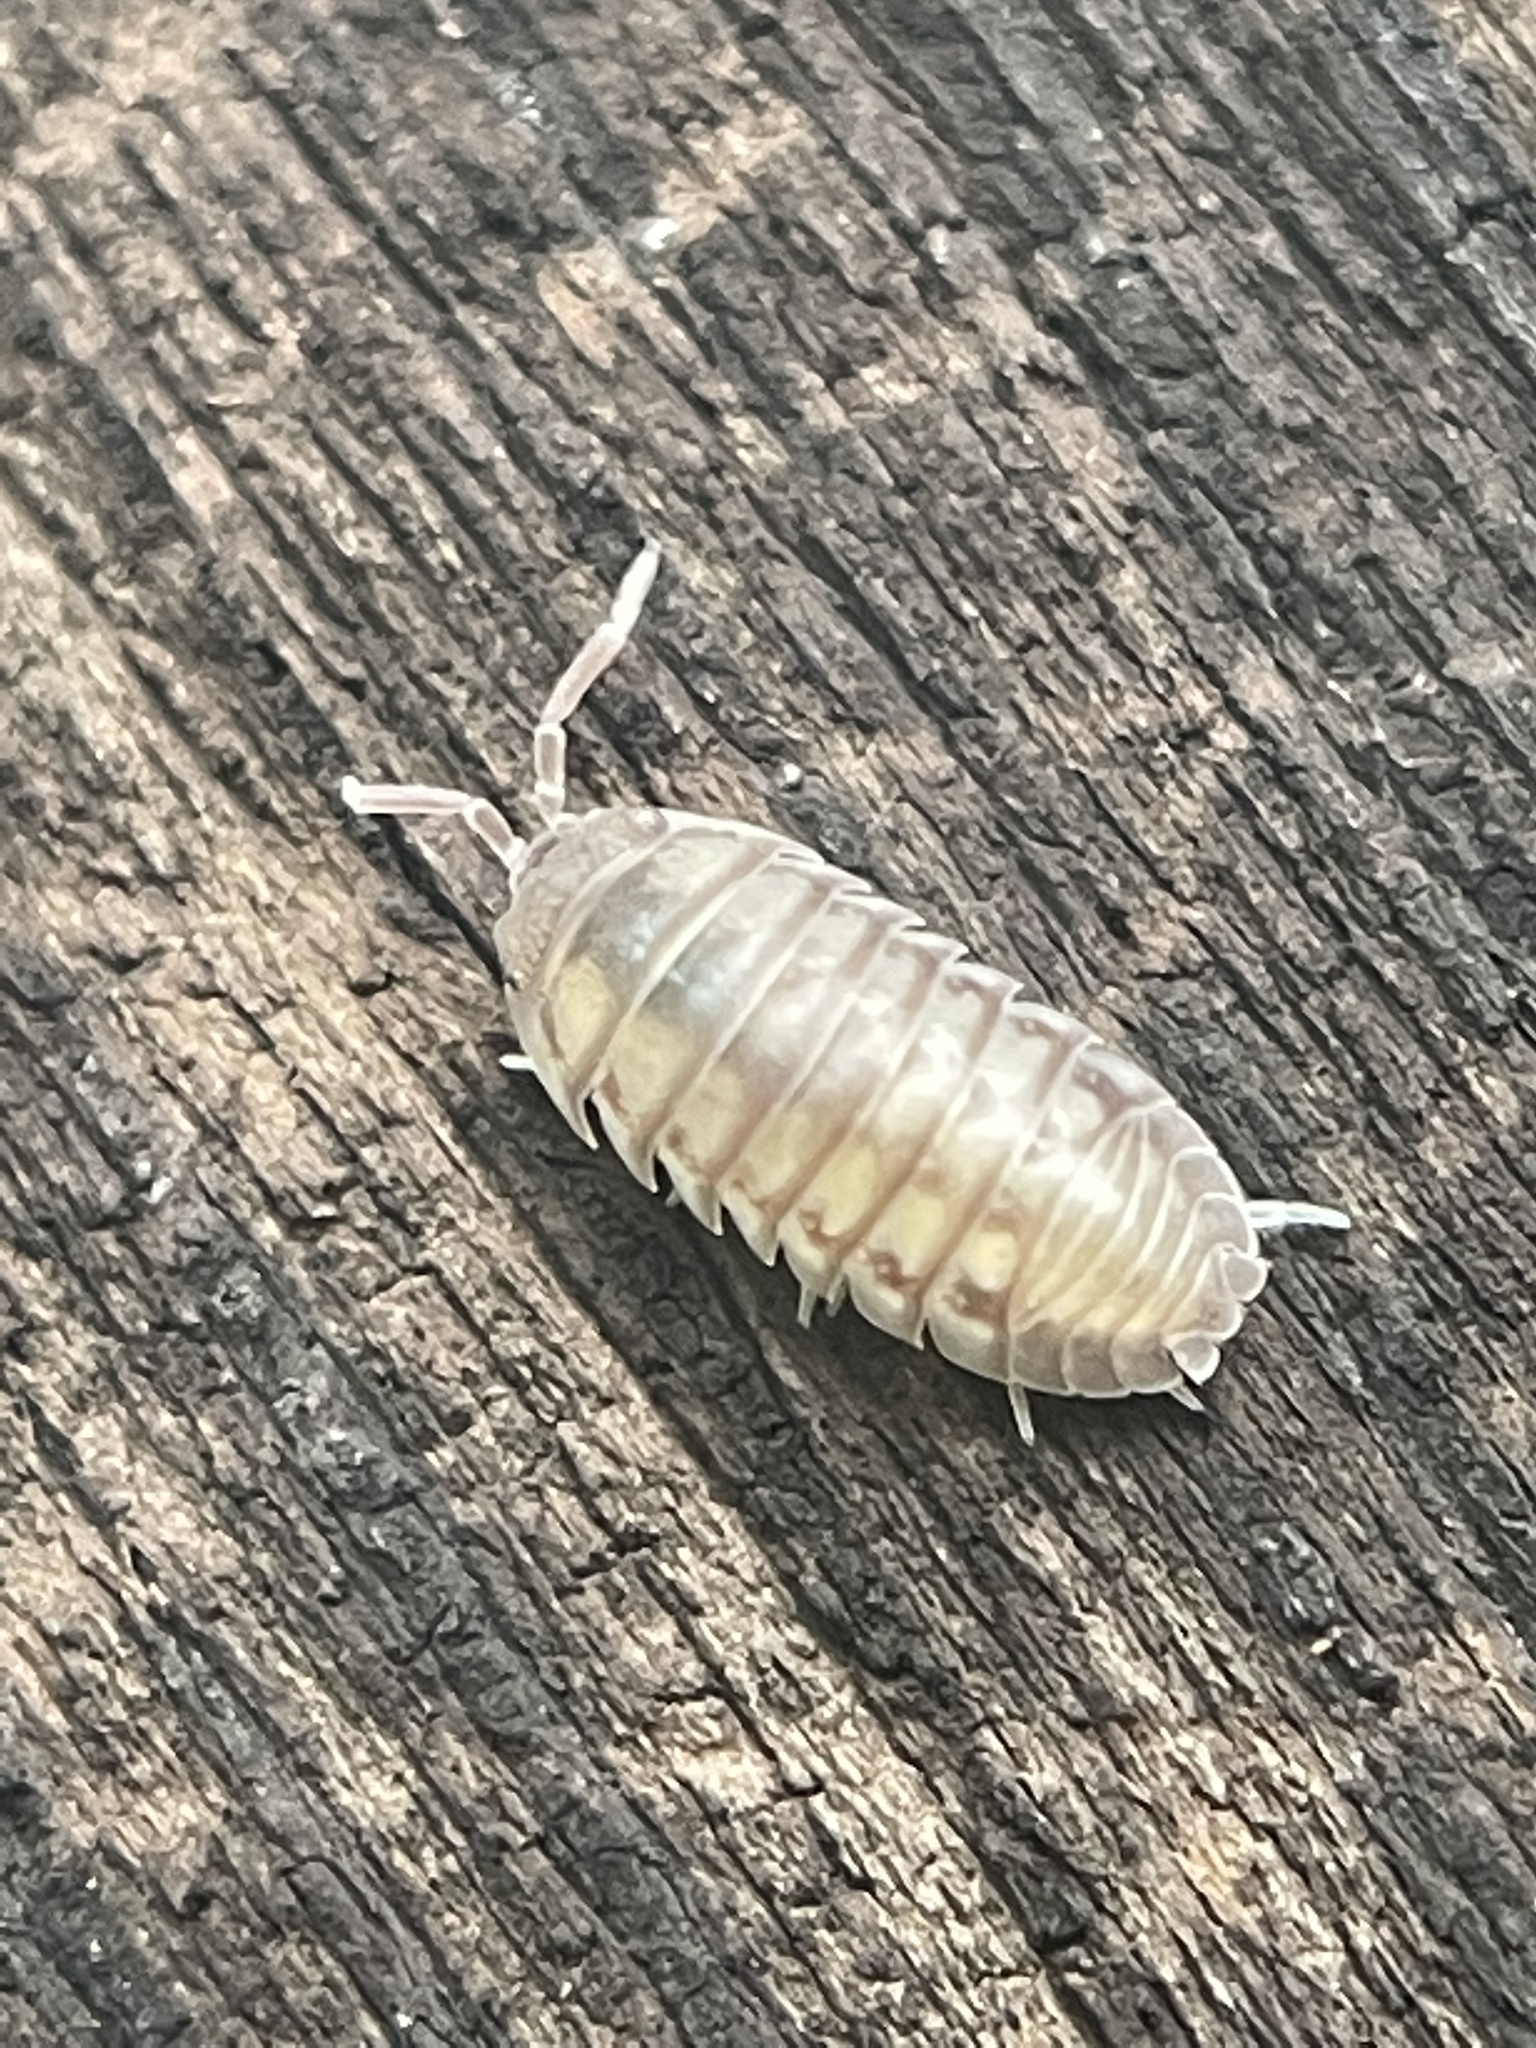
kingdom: Animalia
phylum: Arthropoda
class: Malacostraca
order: Isopoda
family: Armadillidiidae
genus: Armadillidium
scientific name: Armadillidium nasatum
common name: Isopod
